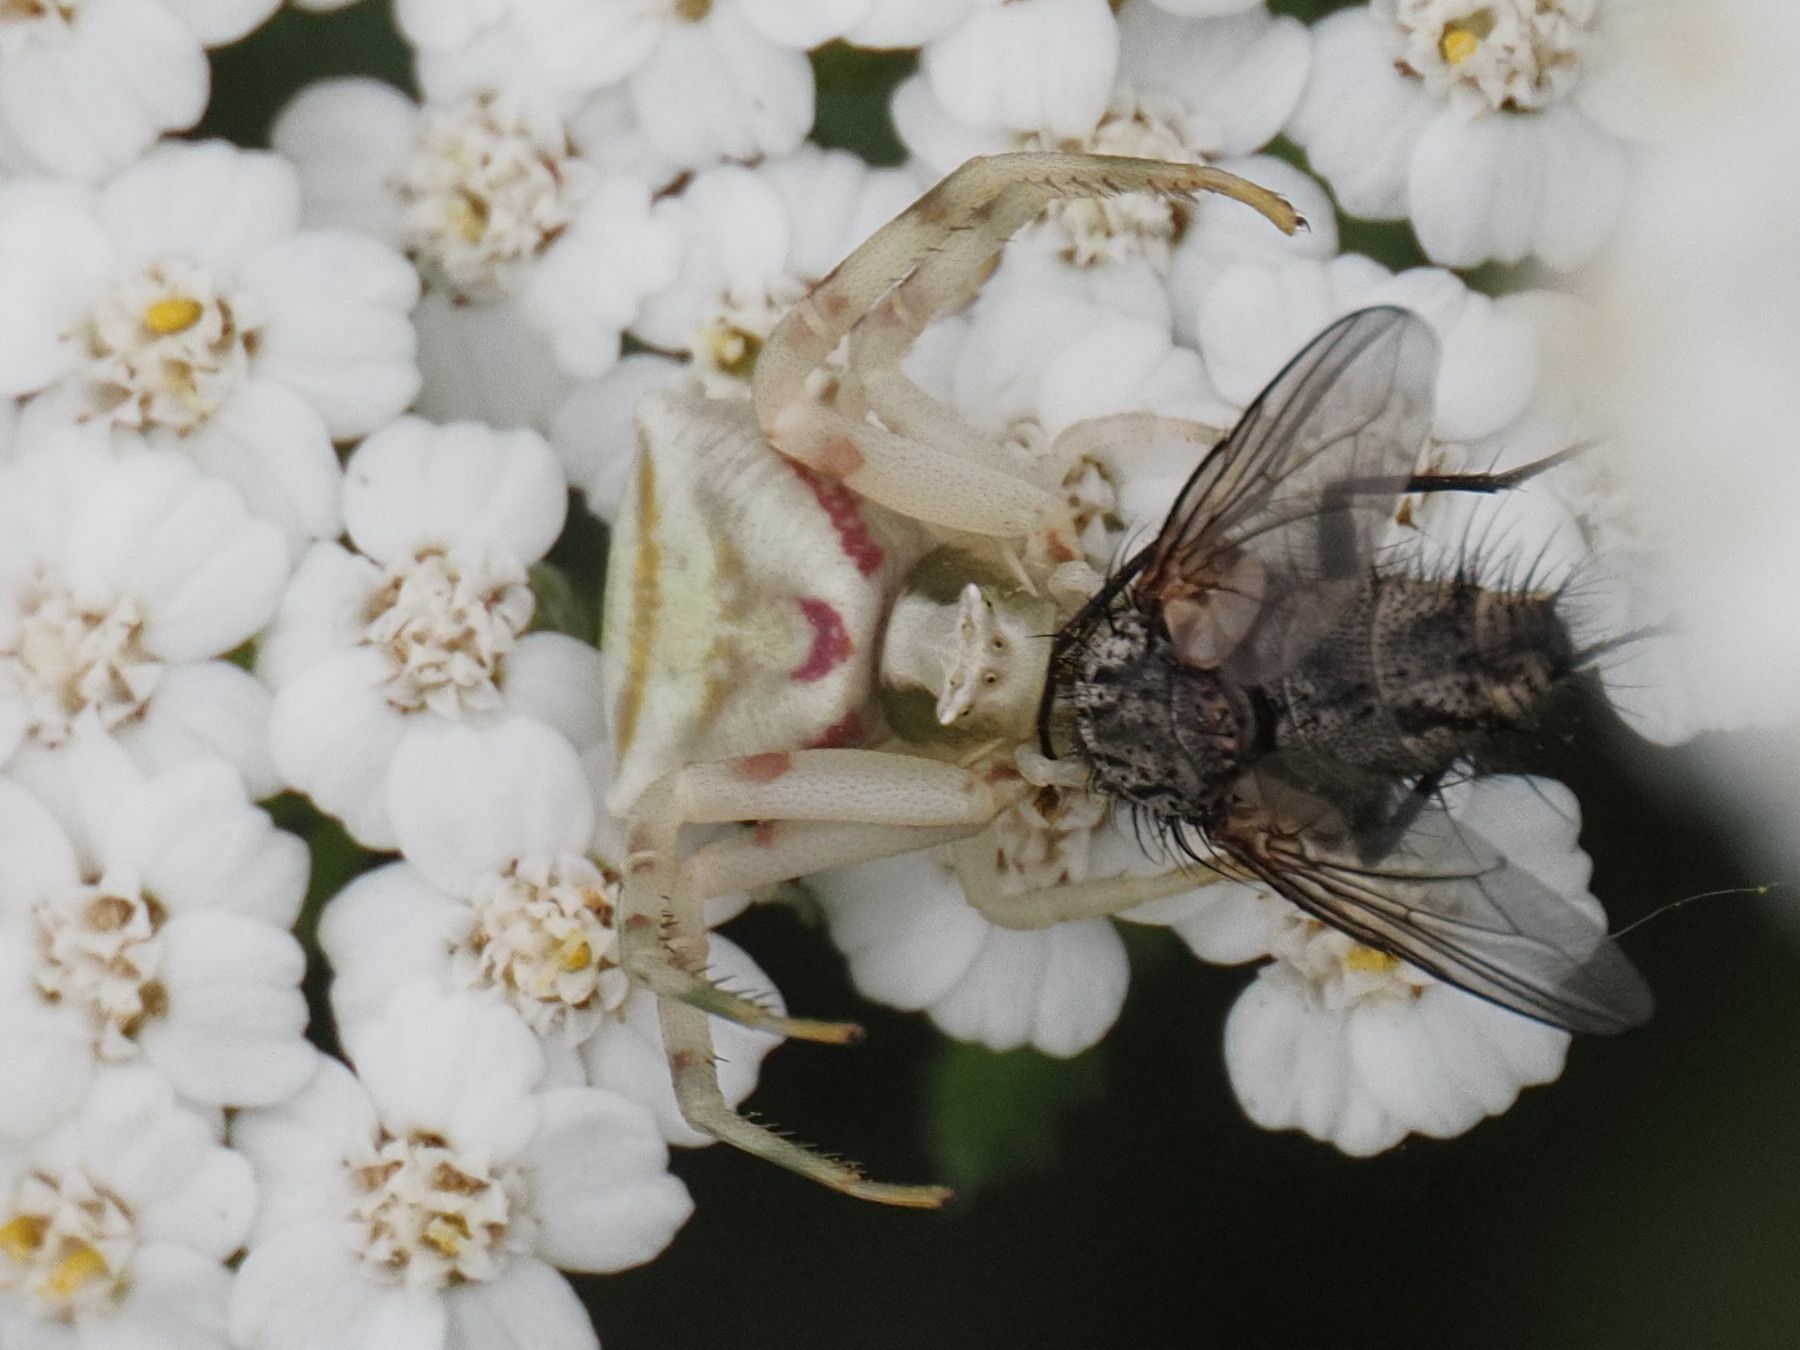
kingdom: Animalia
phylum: Arthropoda
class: Arachnida
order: Araneae
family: Thomisidae
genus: Thomisus
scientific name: Thomisus onustus
